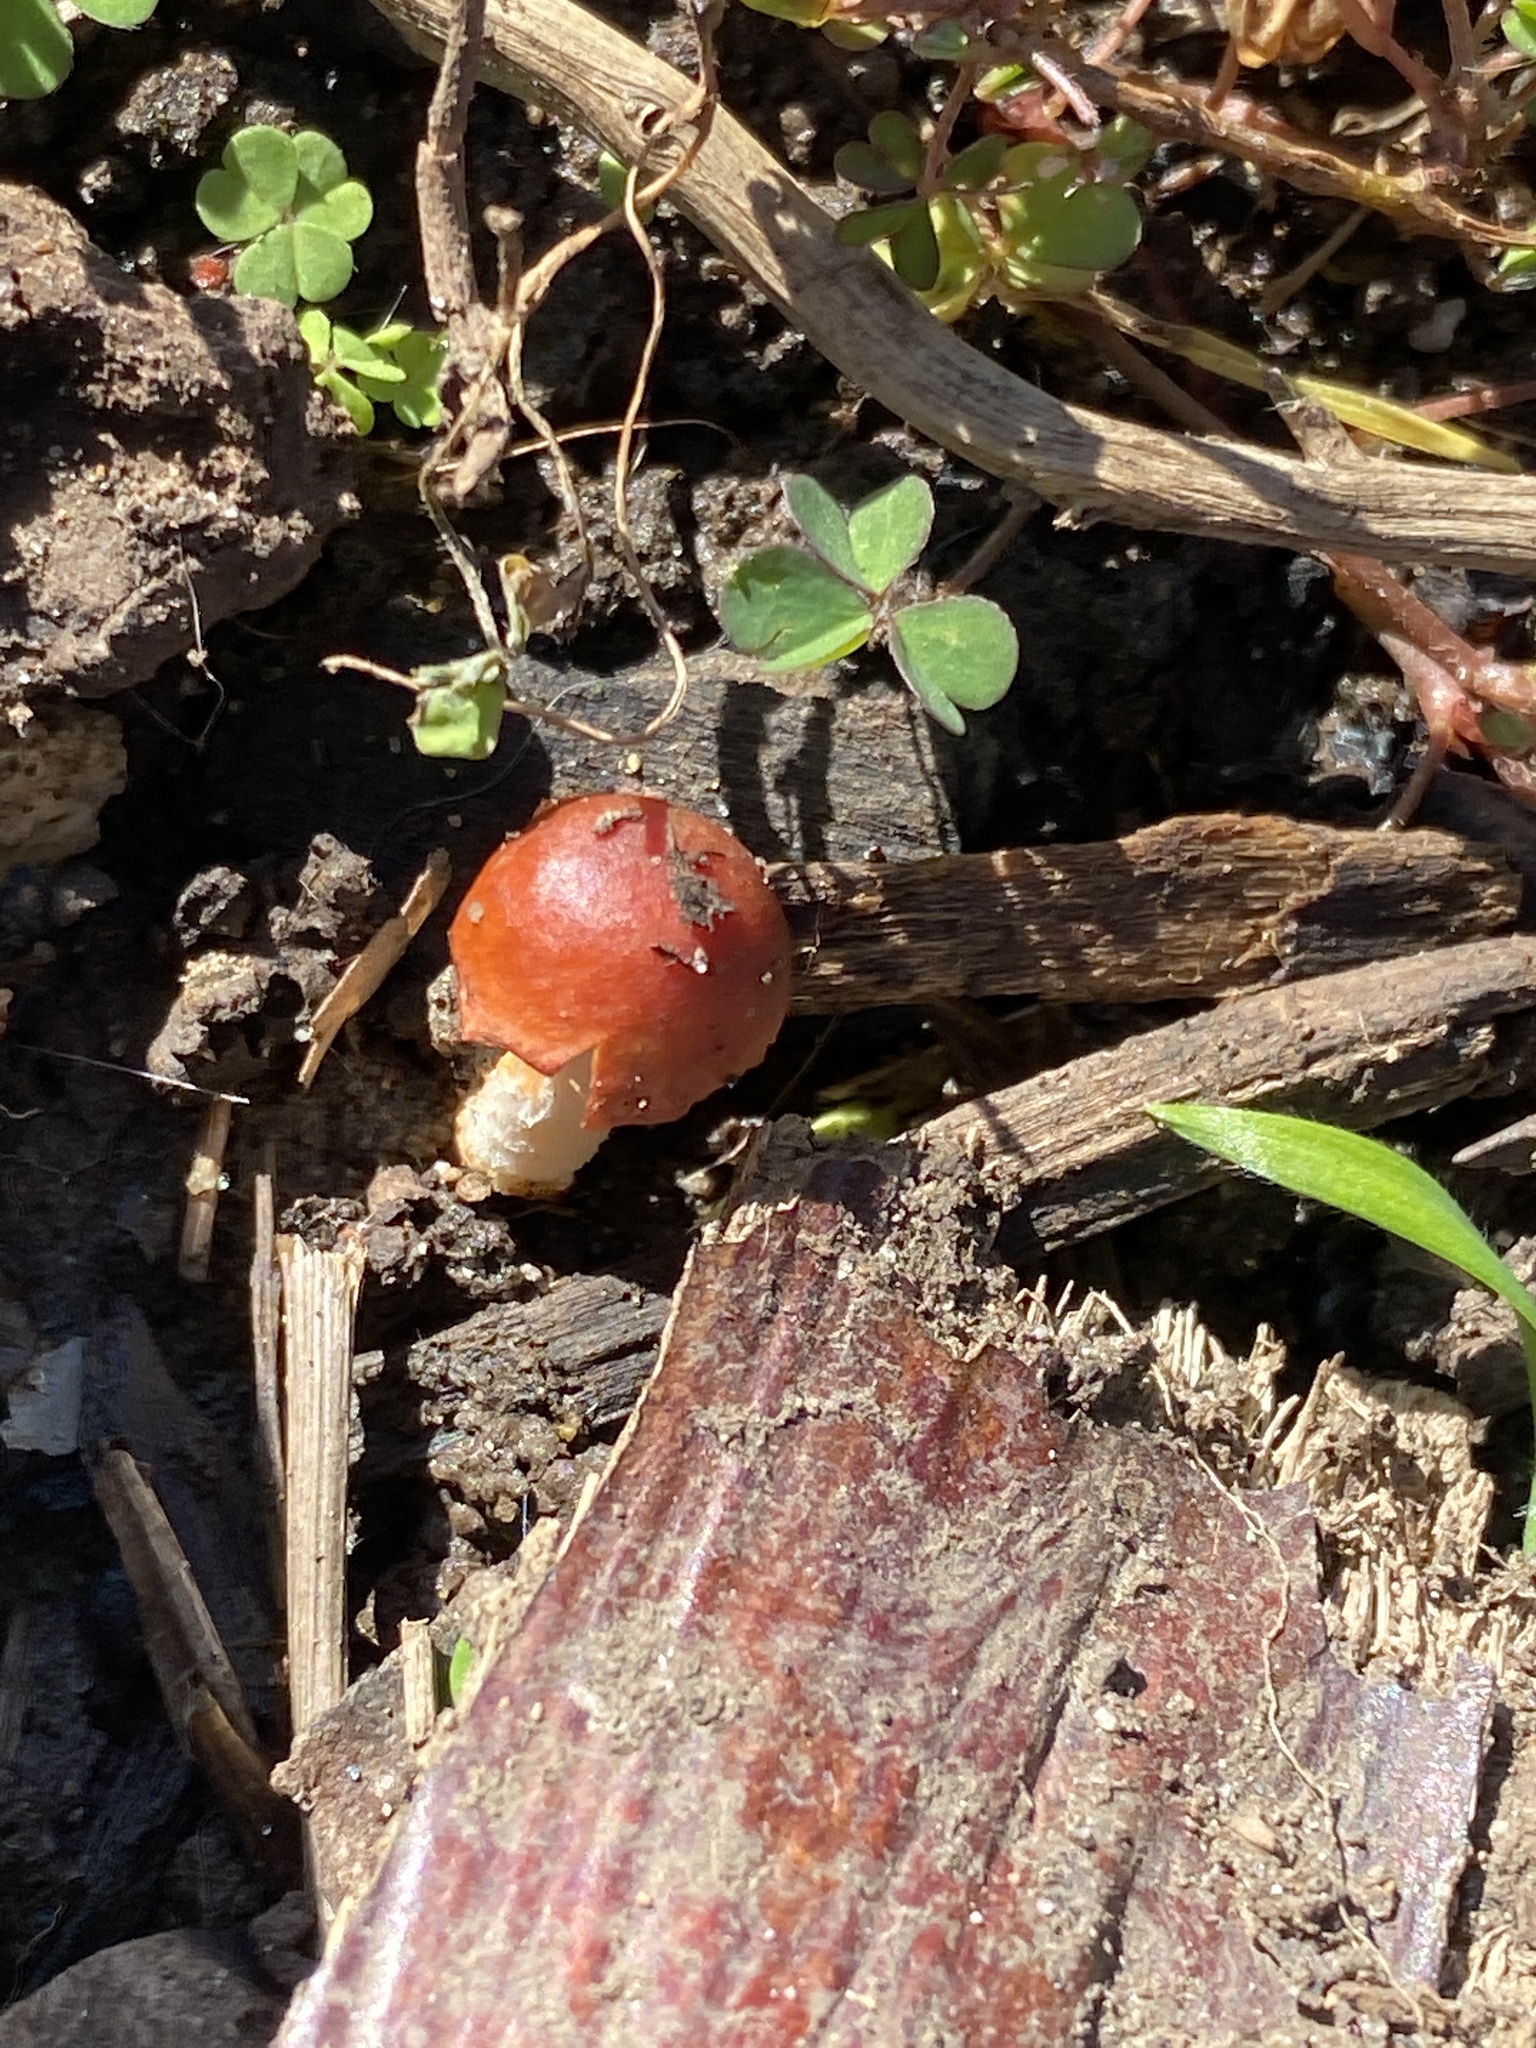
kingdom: Fungi
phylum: Basidiomycota
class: Agaricomycetes
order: Agaricales
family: Strophariaceae
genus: Leratiomyces
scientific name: Leratiomyces ceres
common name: Redlead roundhead
